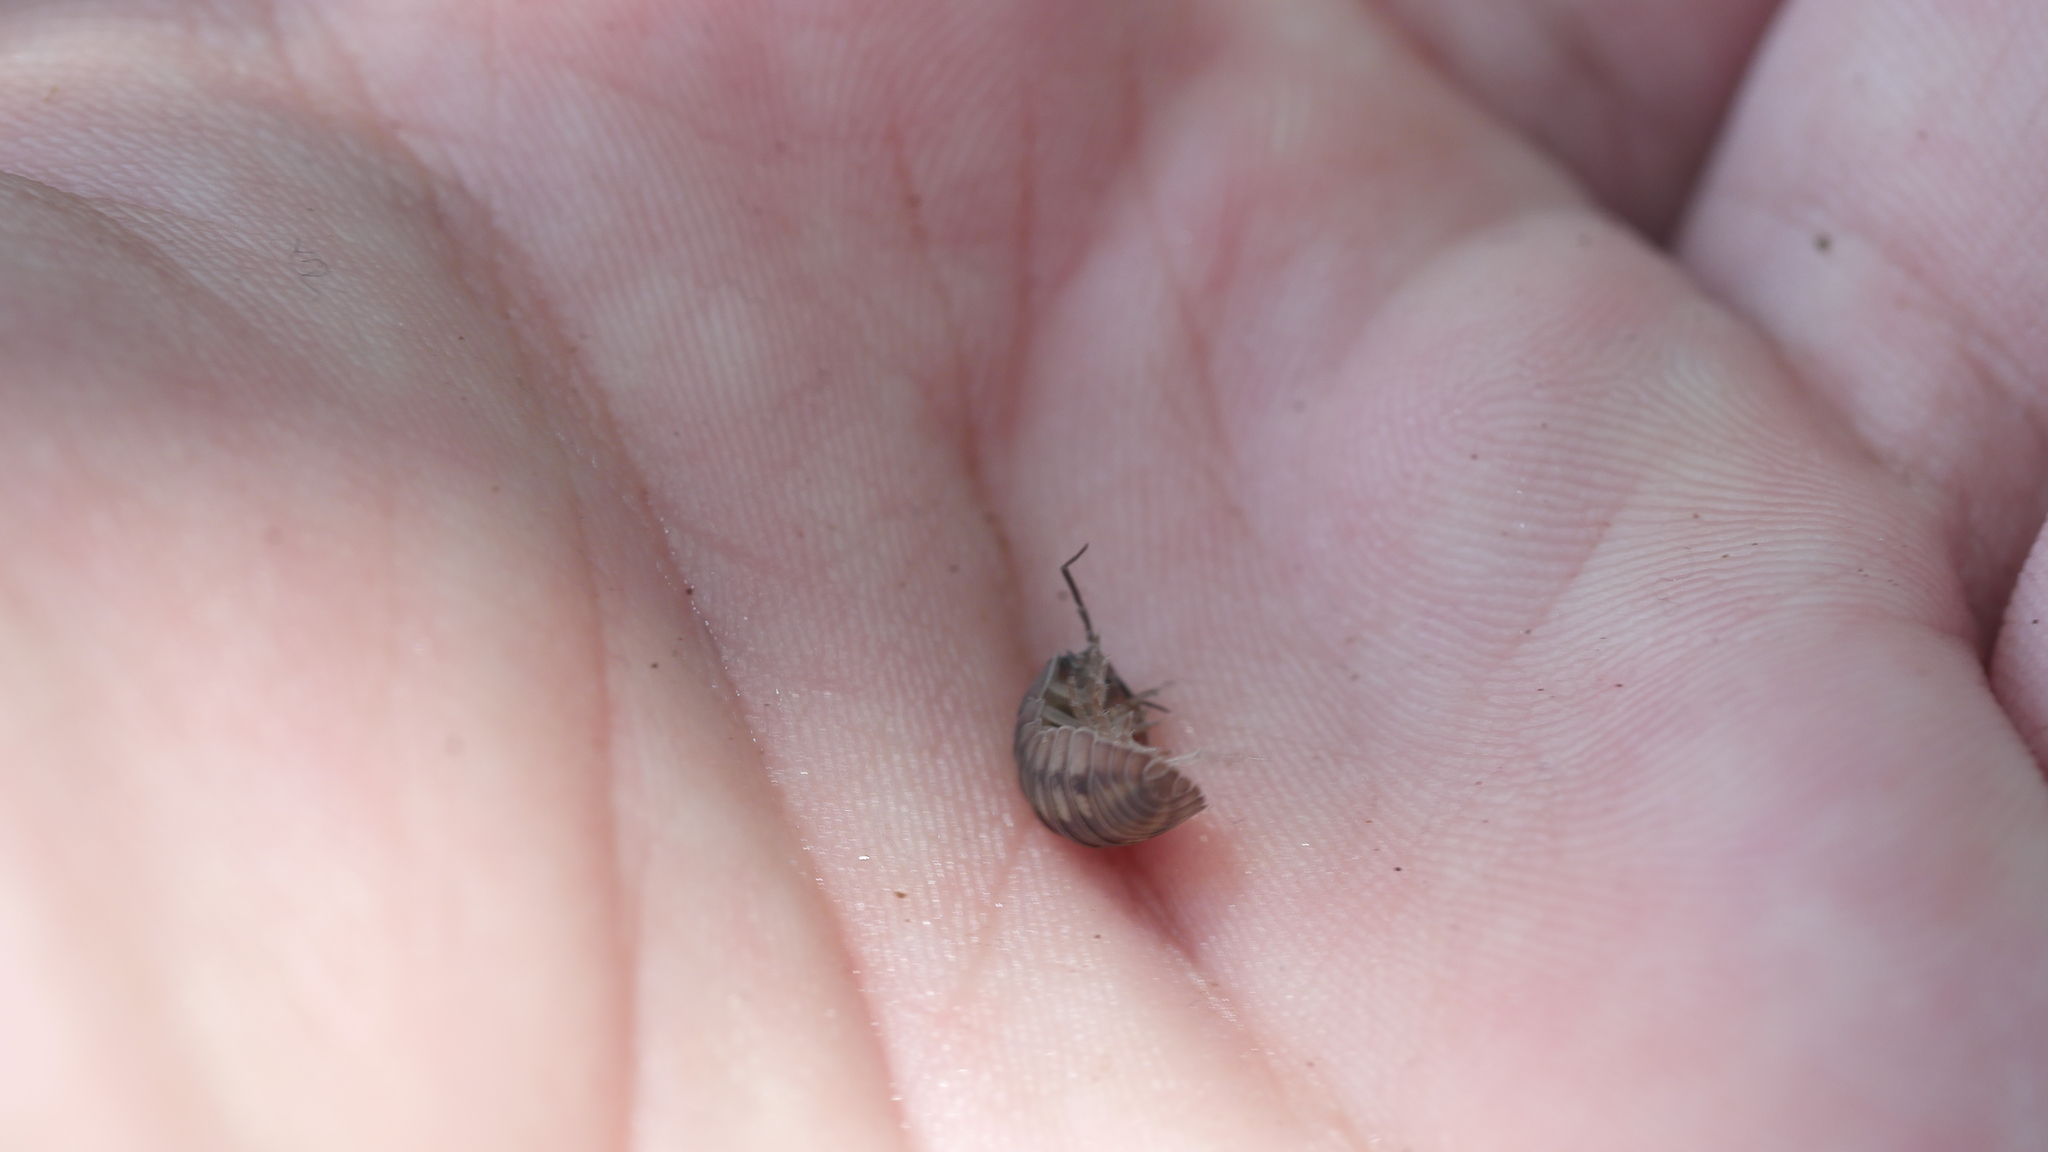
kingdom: Animalia
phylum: Arthropoda
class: Malacostraca
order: Isopoda
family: Armadillidiidae
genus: Armadillidium
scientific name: Armadillidium nasatum
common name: Isopod
